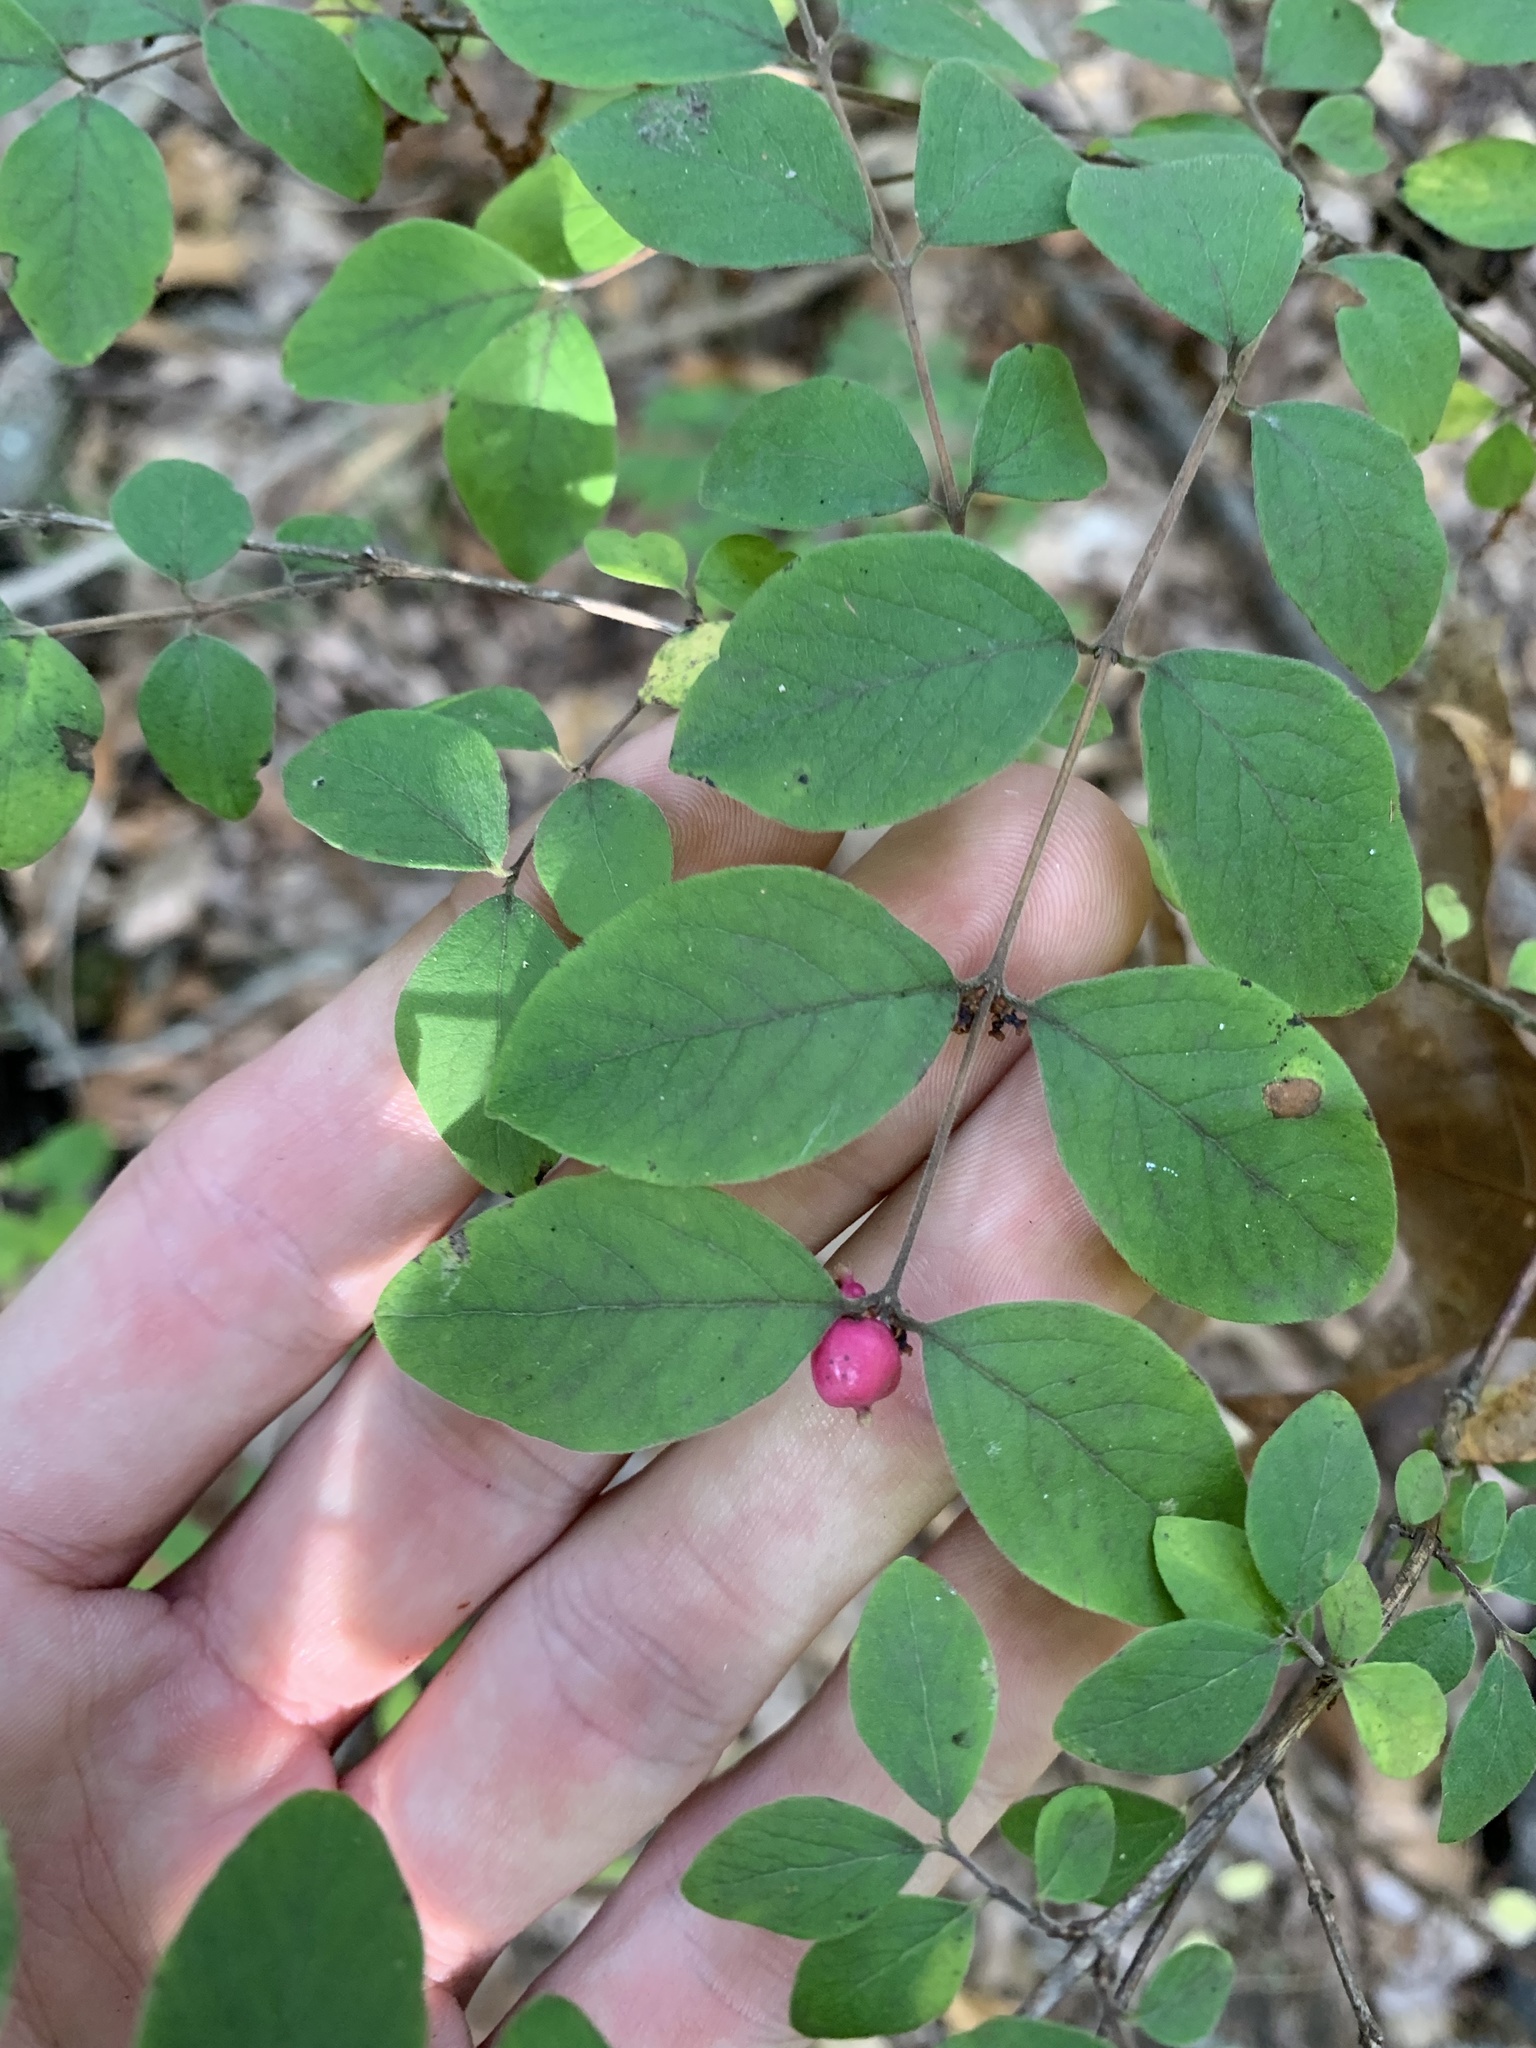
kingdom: Plantae
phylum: Tracheophyta
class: Magnoliopsida
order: Dipsacales
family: Caprifoliaceae
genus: Symphoricarpos
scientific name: Symphoricarpos orbiculatus
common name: Coralberry
